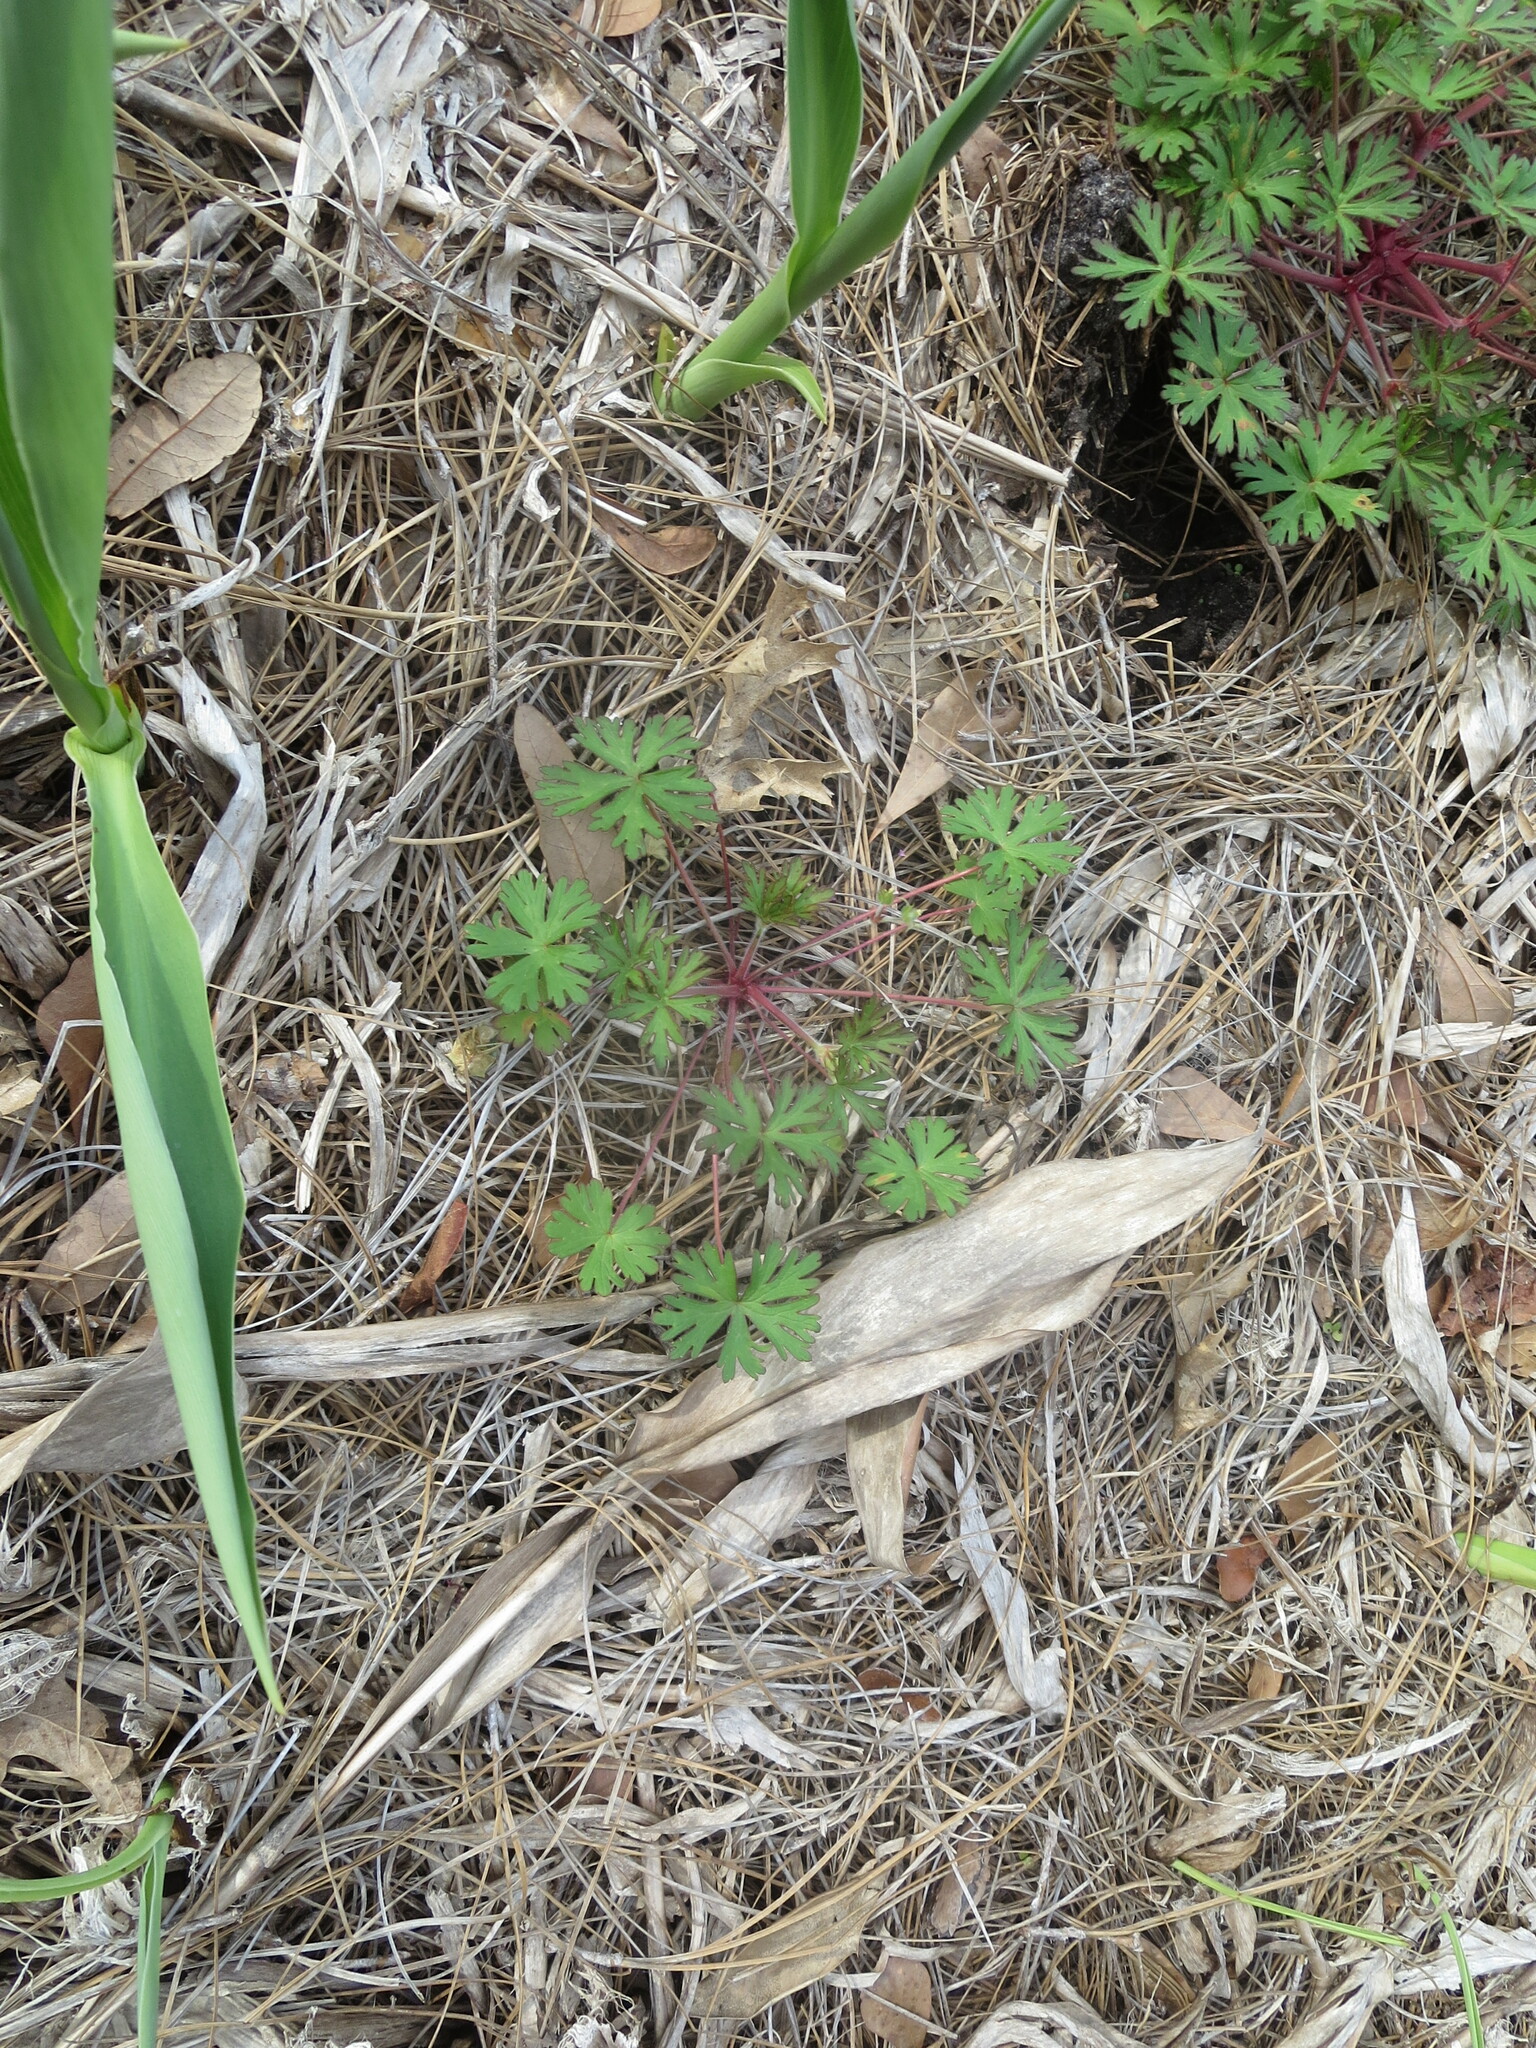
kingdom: Plantae
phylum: Tracheophyta
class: Magnoliopsida
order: Geraniales
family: Geraniaceae
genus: Geranium
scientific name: Geranium carolinianum
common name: Carolina crane's-bill
